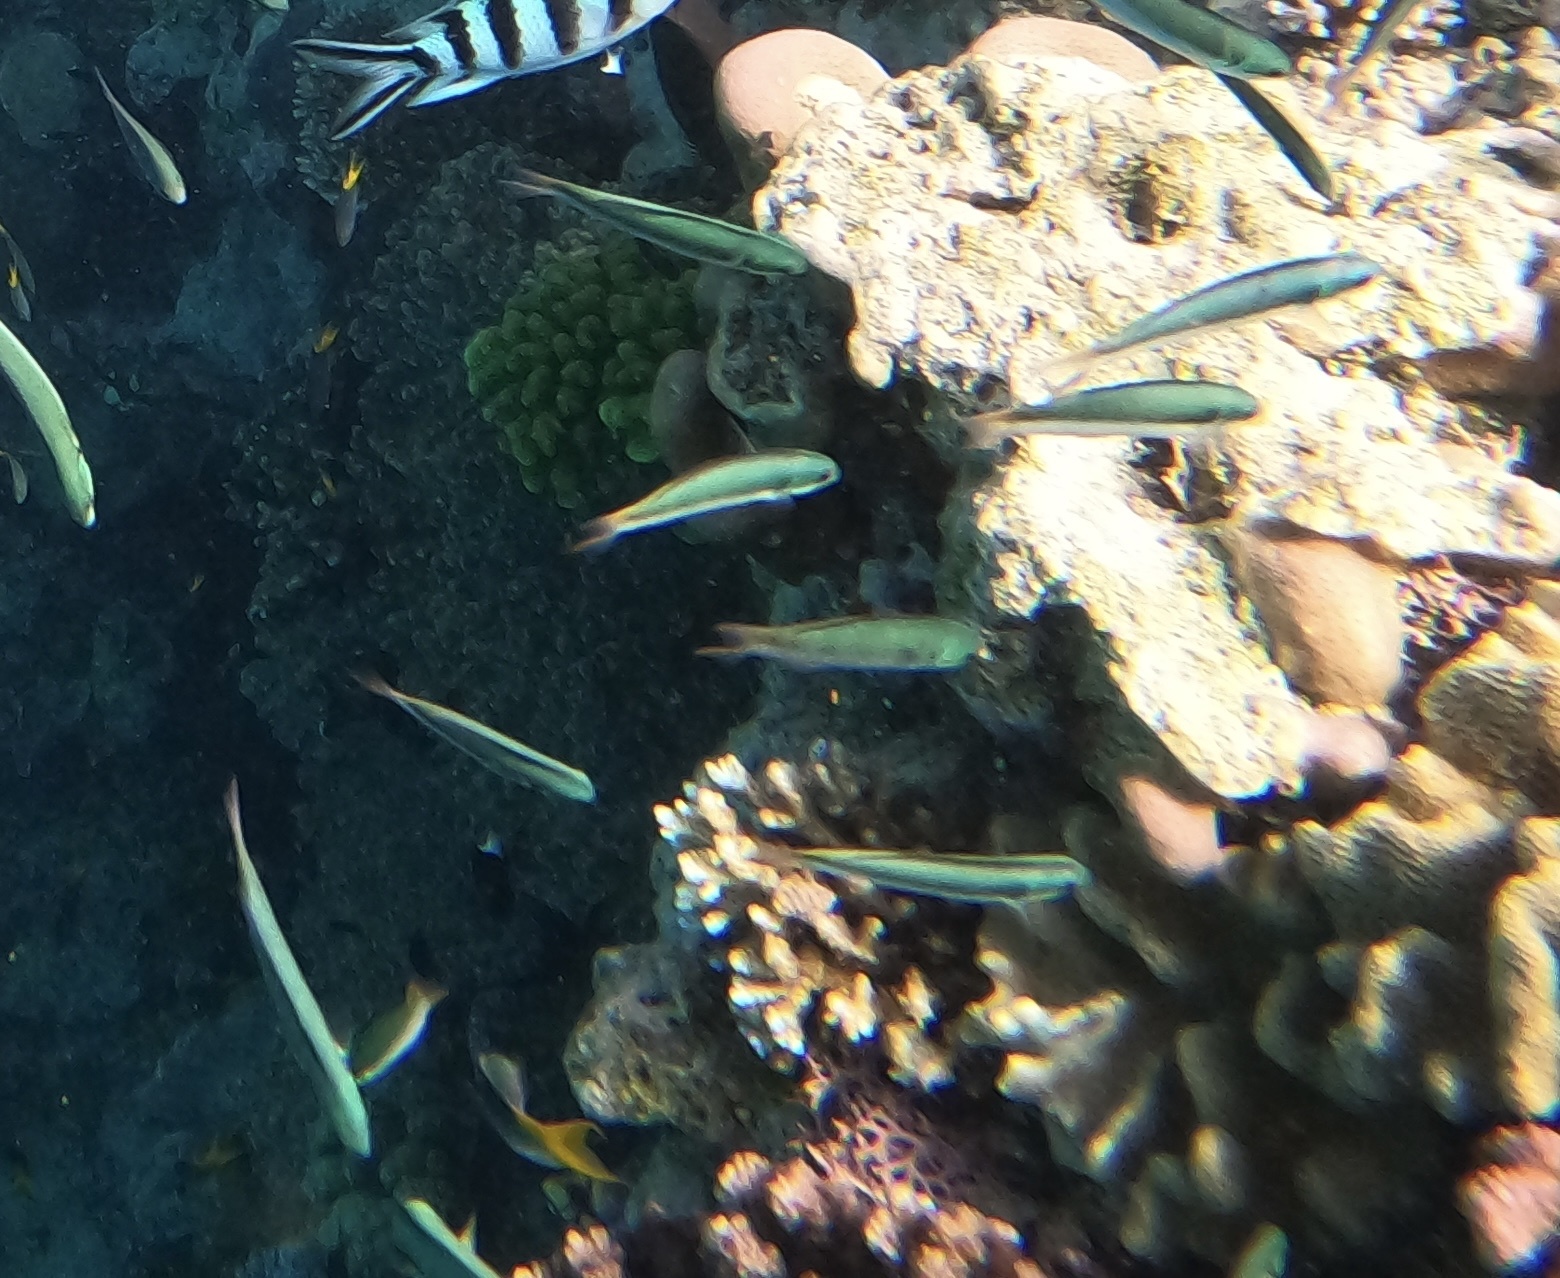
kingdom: Animalia
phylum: Chordata
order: Perciformes
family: Labridae
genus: Thalassoma
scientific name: Thalassoma amblycephalum
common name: Bluehead wrasse
